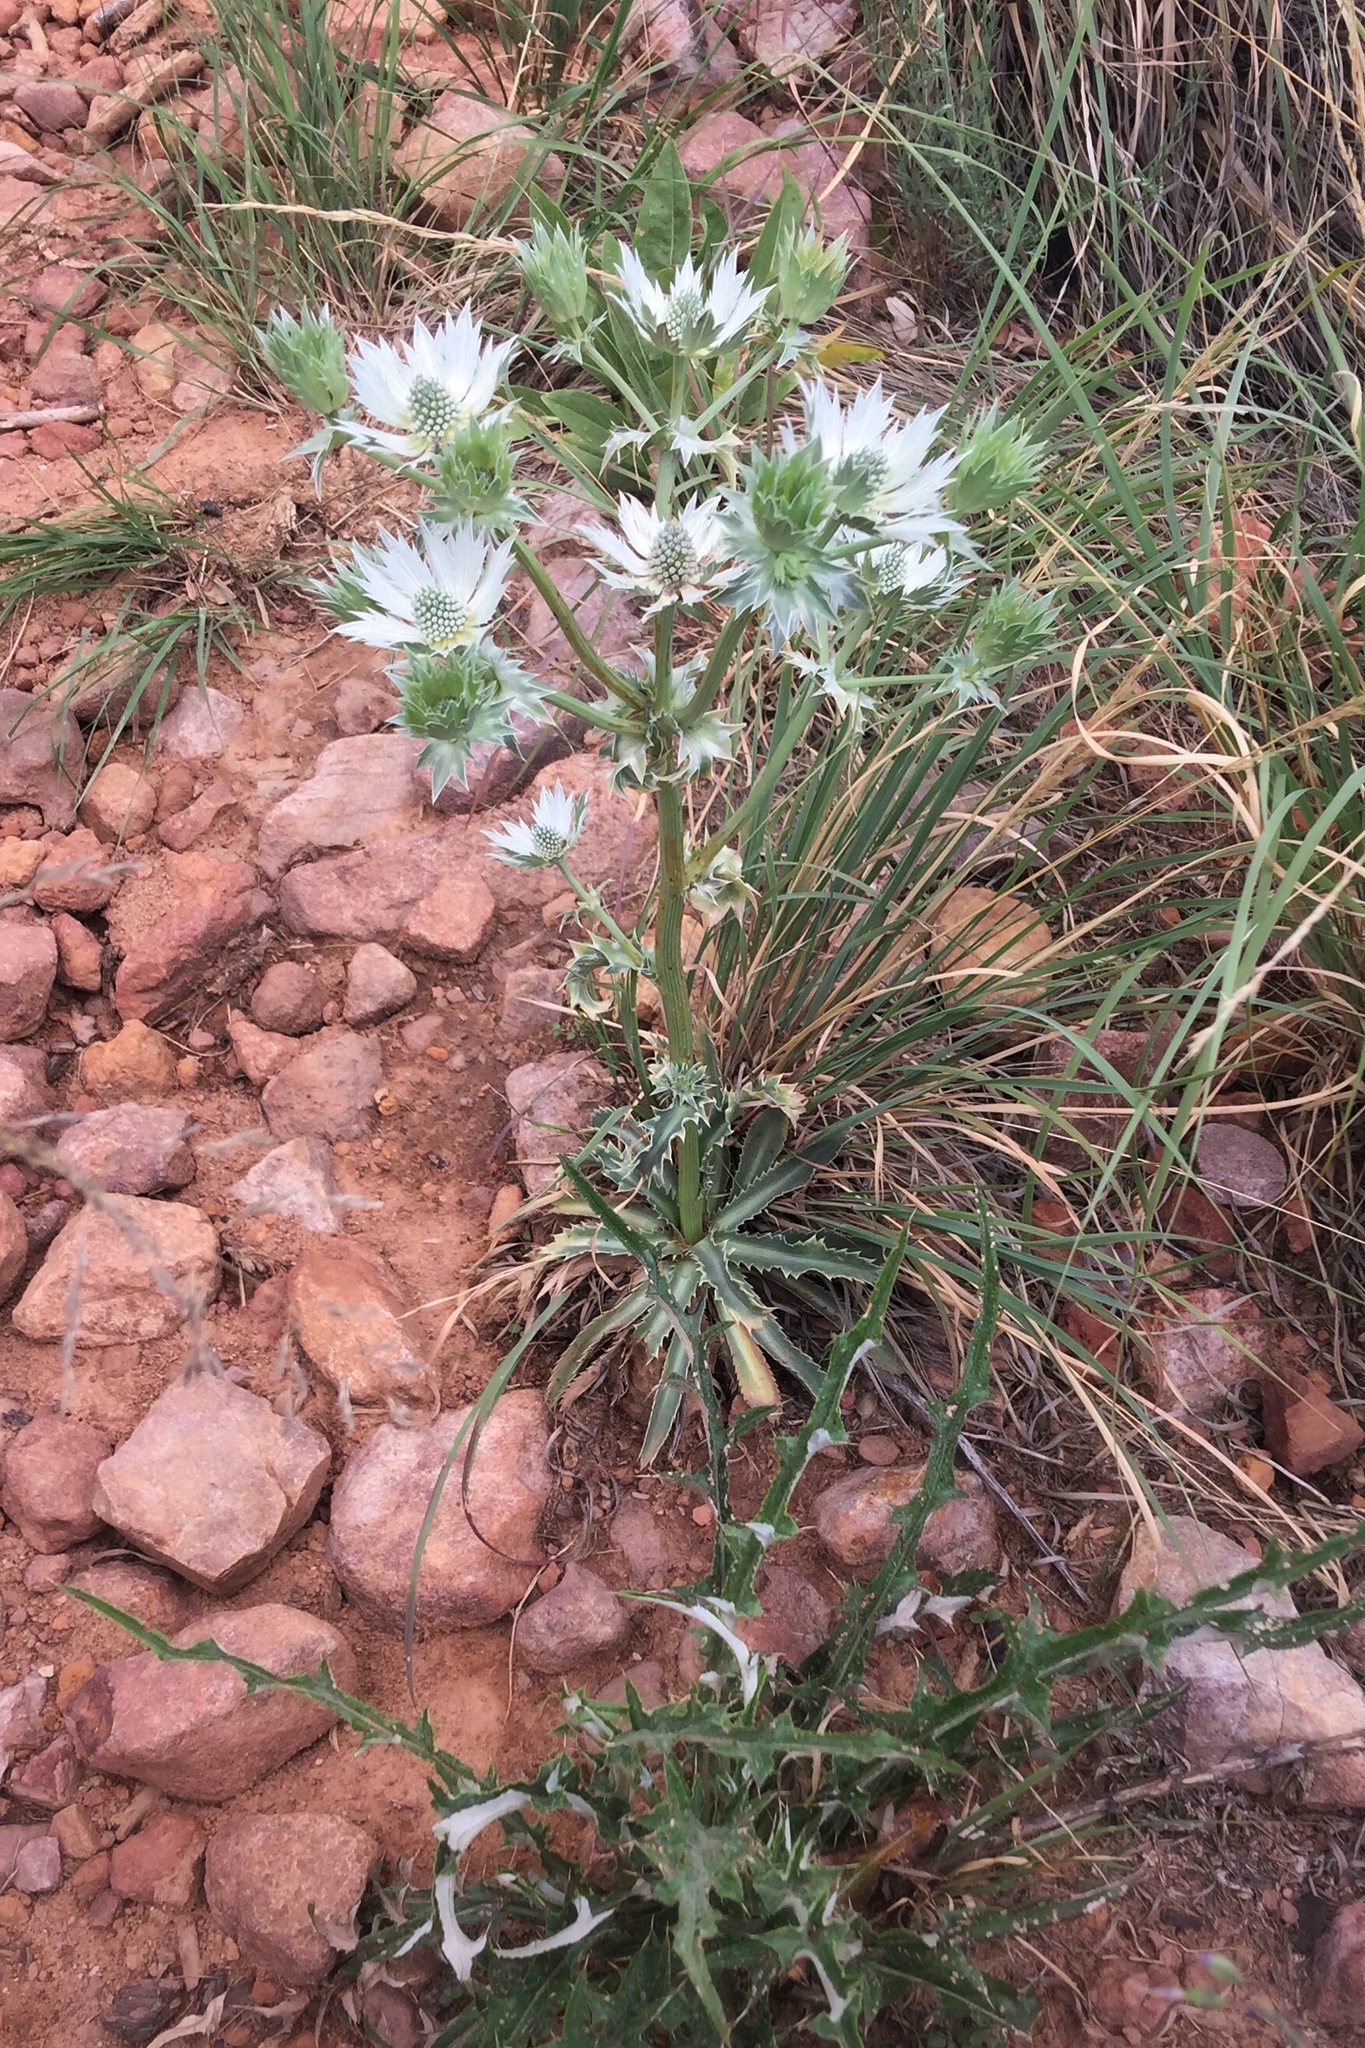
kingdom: Plantae
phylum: Tracheophyta
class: Magnoliopsida
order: Apiales
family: Apiaceae
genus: Eryngium
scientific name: Eryngium lemmonii
